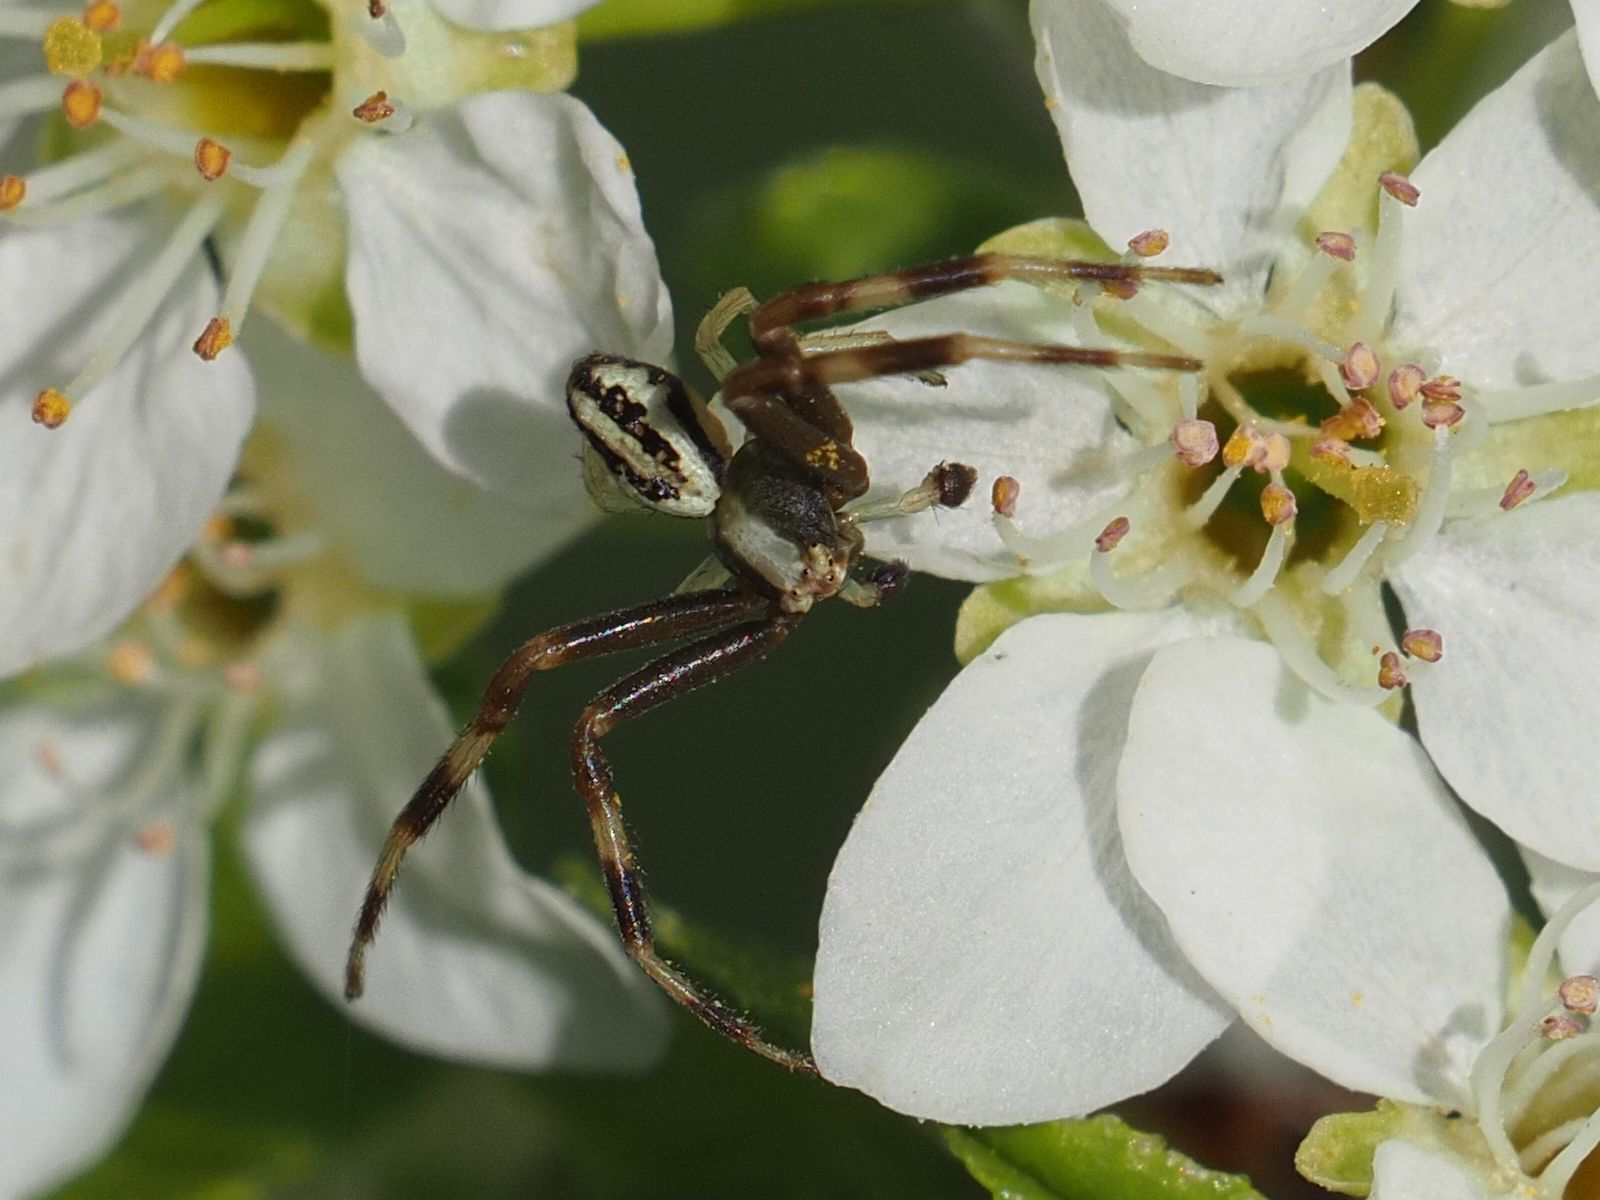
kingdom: Animalia
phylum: Arthropoda
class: Arachnida
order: Araneae
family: Thomisidae
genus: Misumena
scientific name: Misumena vatia
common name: Goldenrod crab spider
